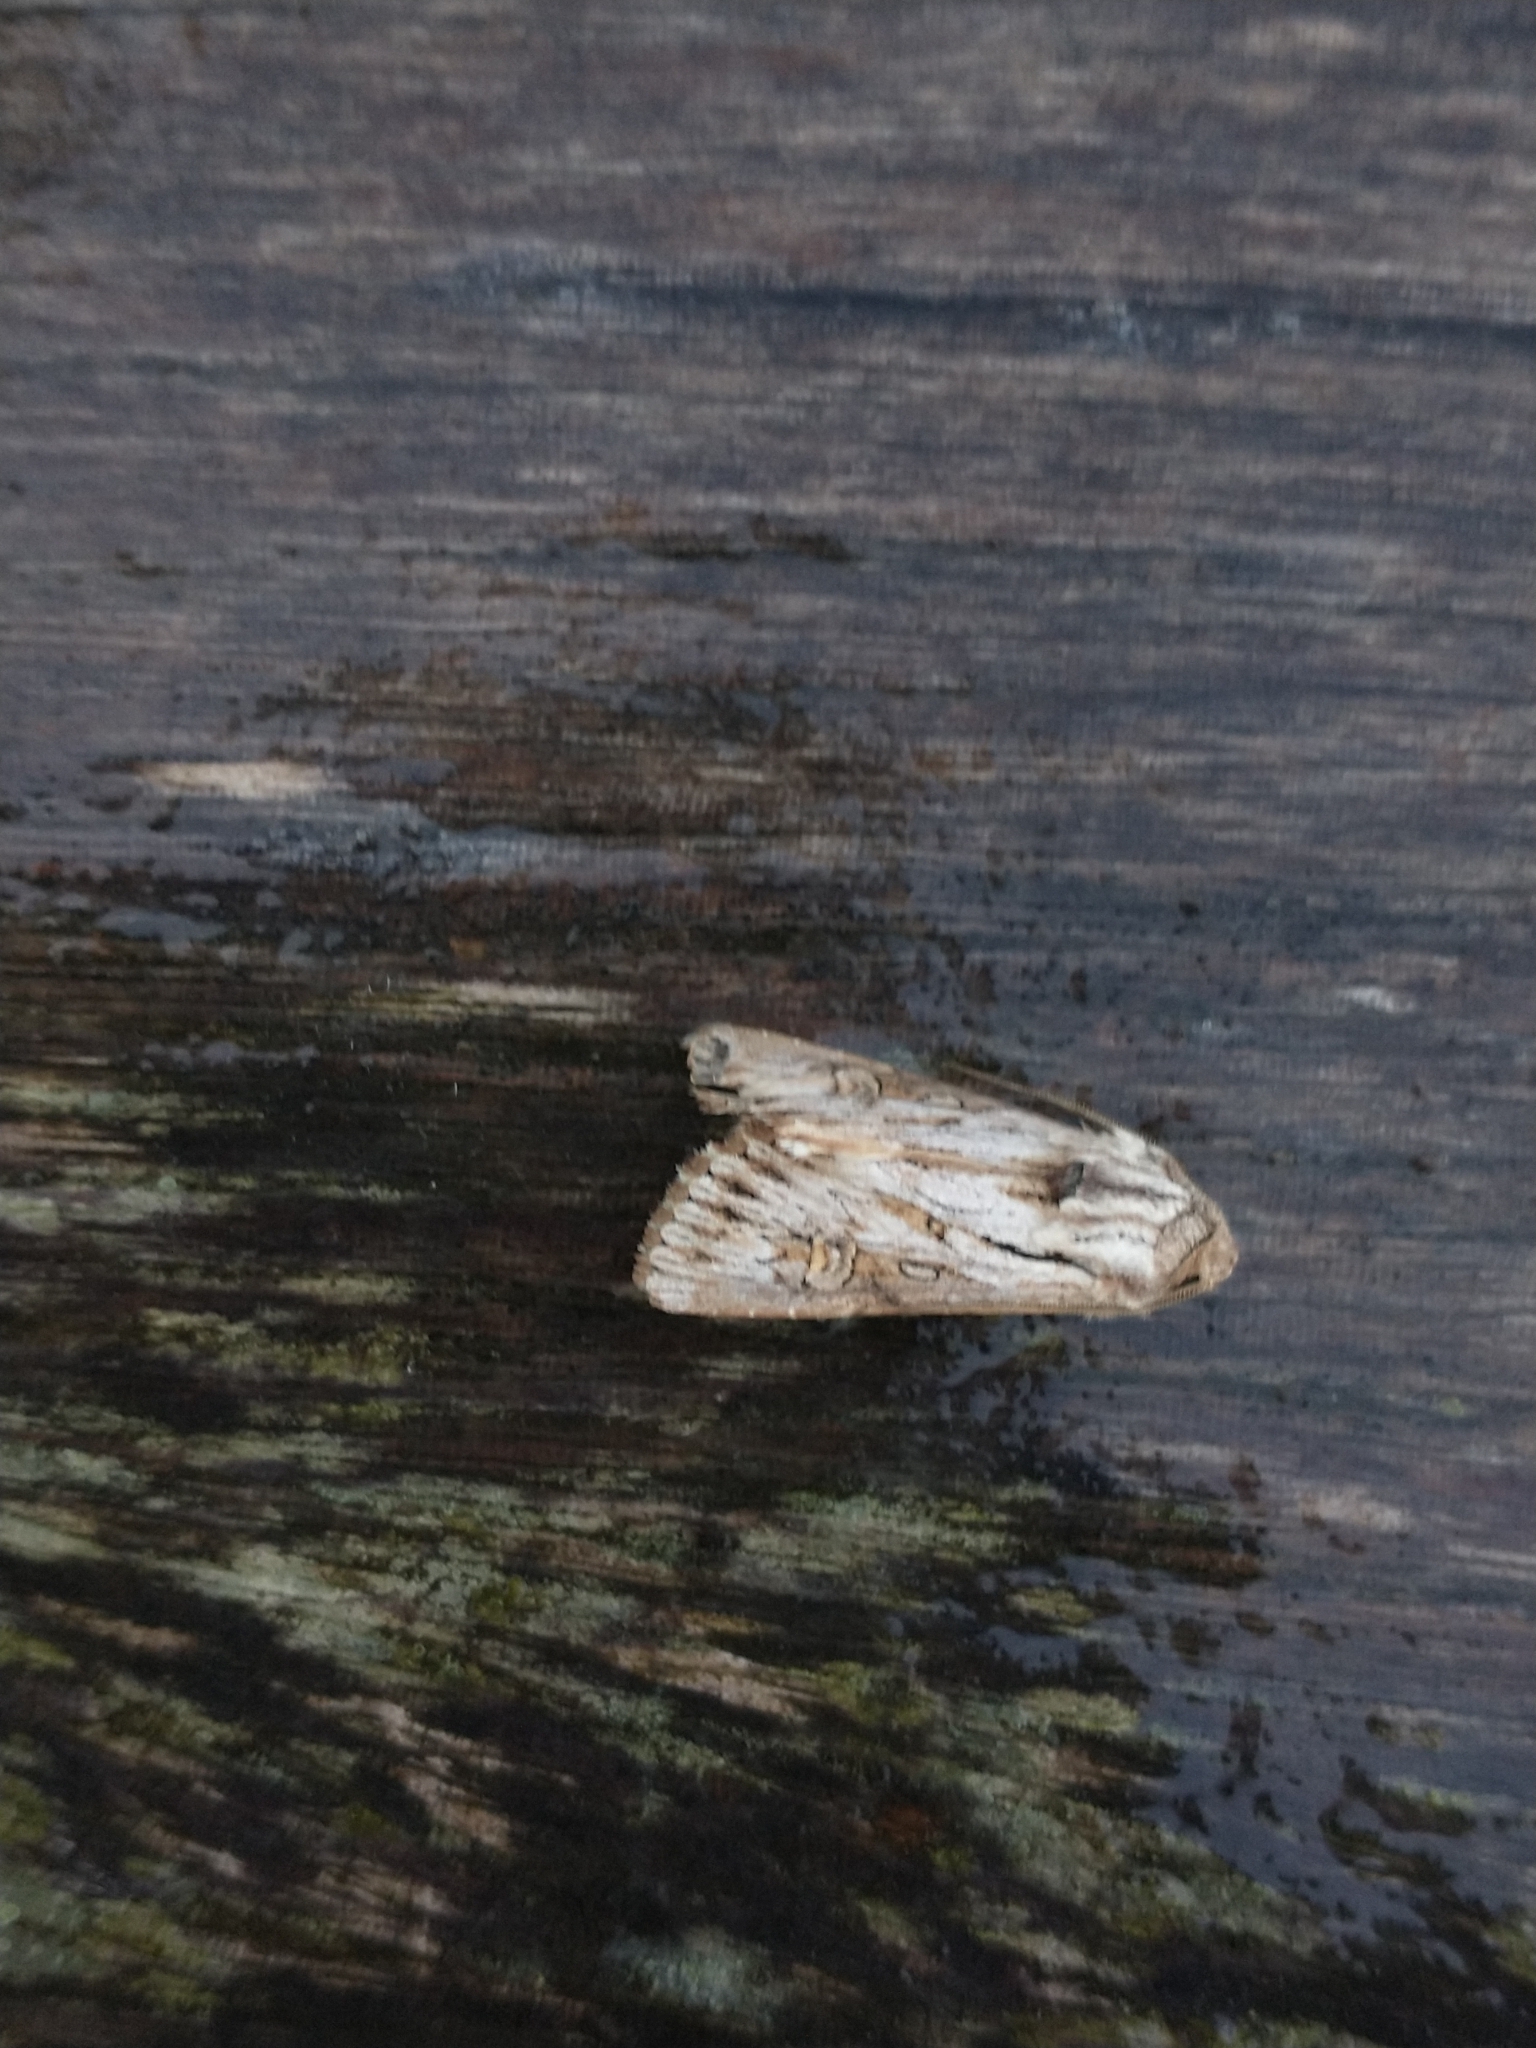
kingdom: Animalia
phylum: Arthropoda
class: Insecta
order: Lepidoptera
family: Noctuidae
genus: Aporophyla
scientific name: Aporophyla australis
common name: Feathered brindle
